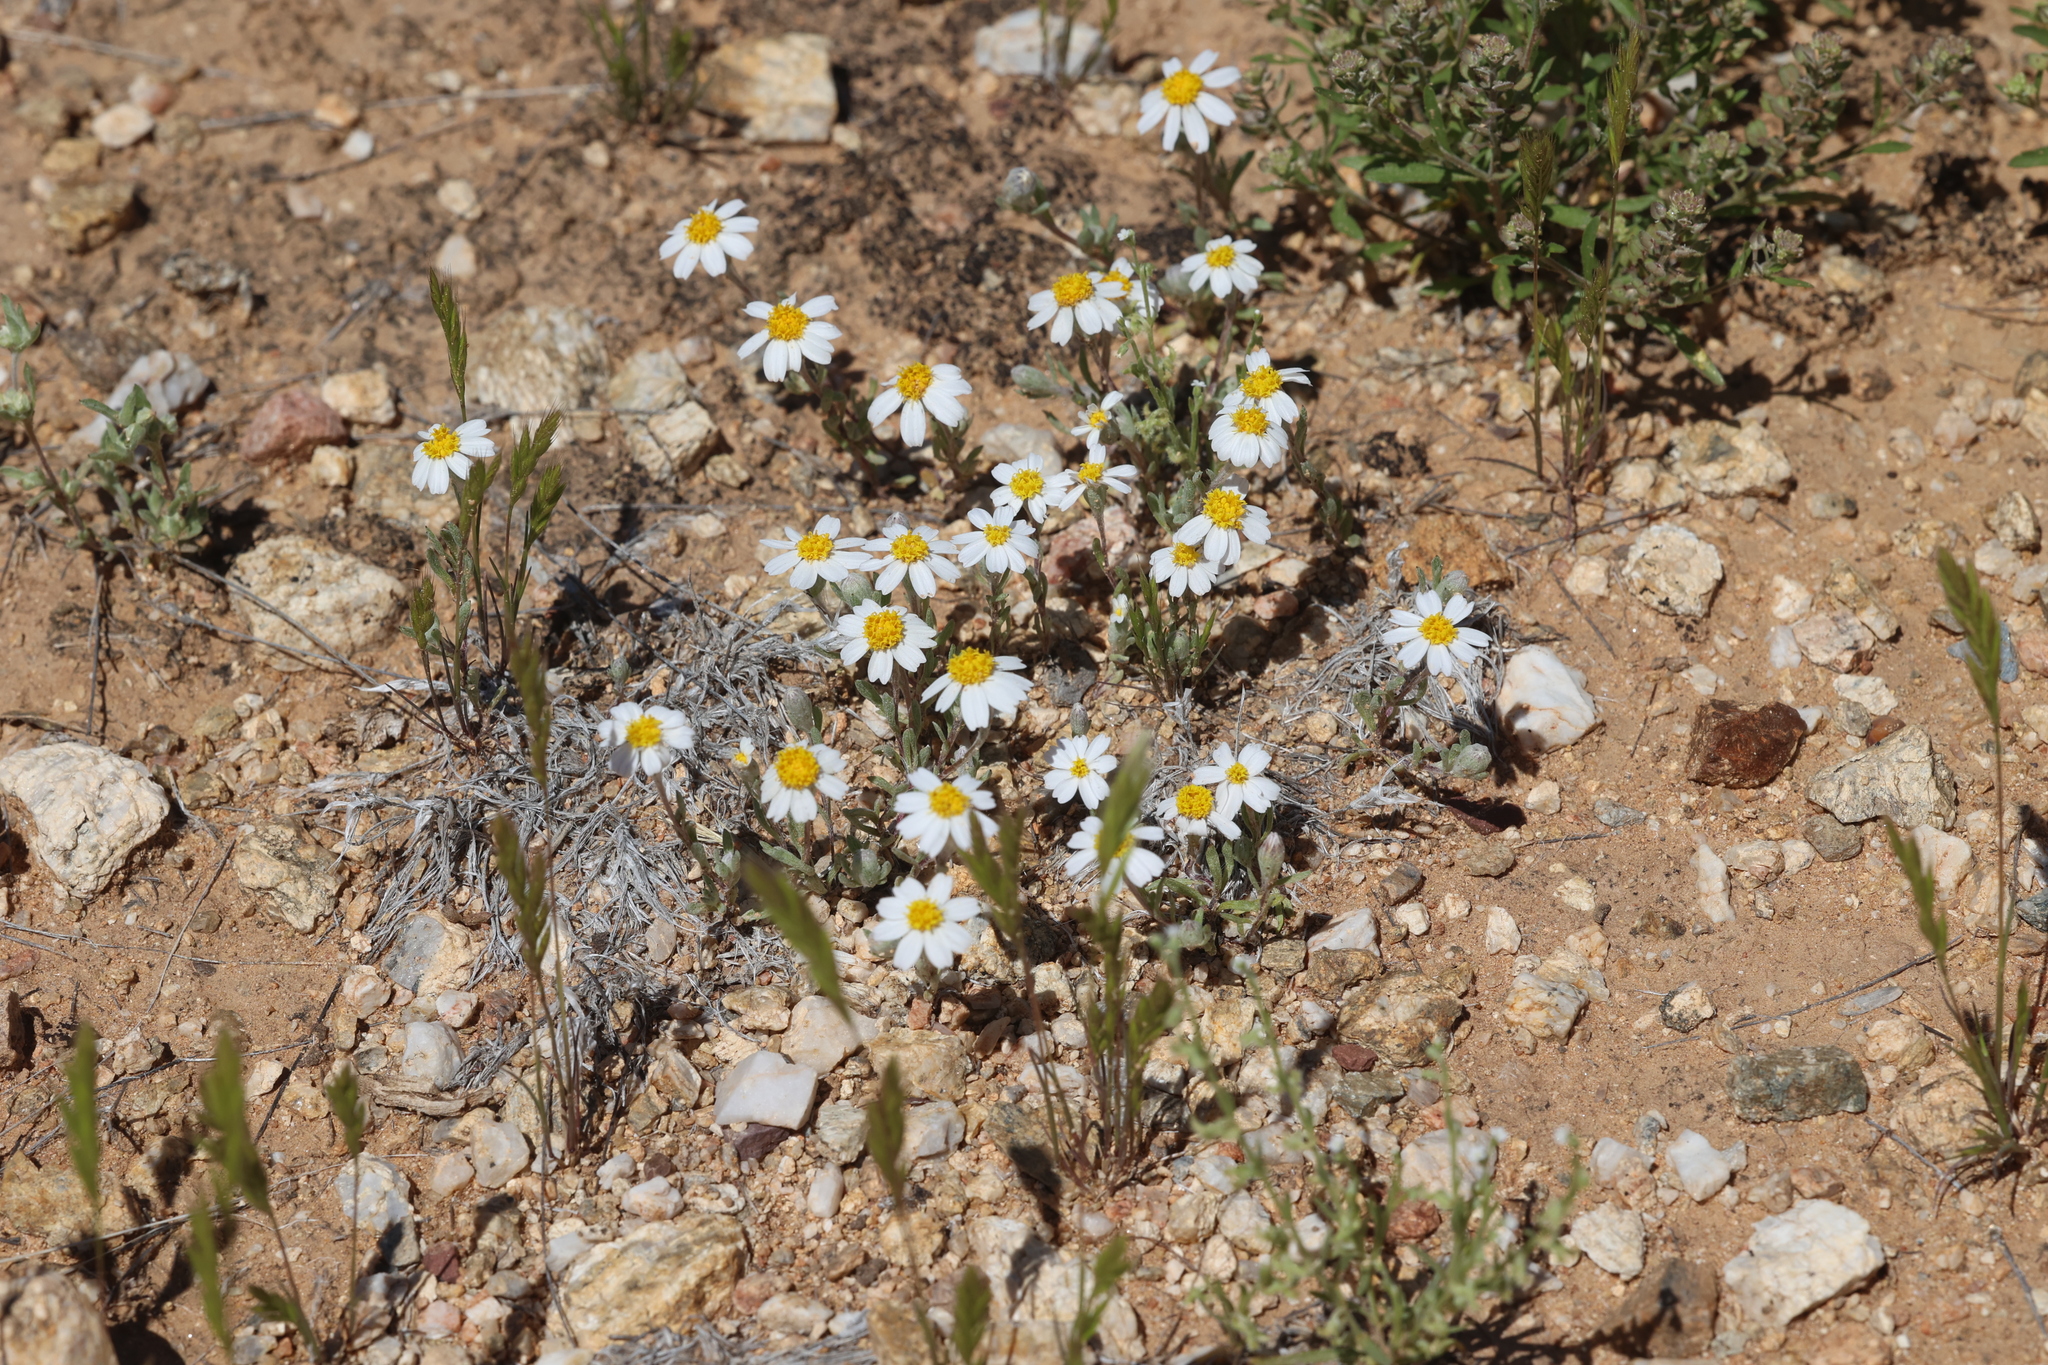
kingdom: Plantae
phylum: Tracheophyta
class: Magnoliopsida
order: Asterales
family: Asteraceae
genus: Eriophyllum
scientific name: Eriophyllum lanosum
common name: White easter-bonnets
